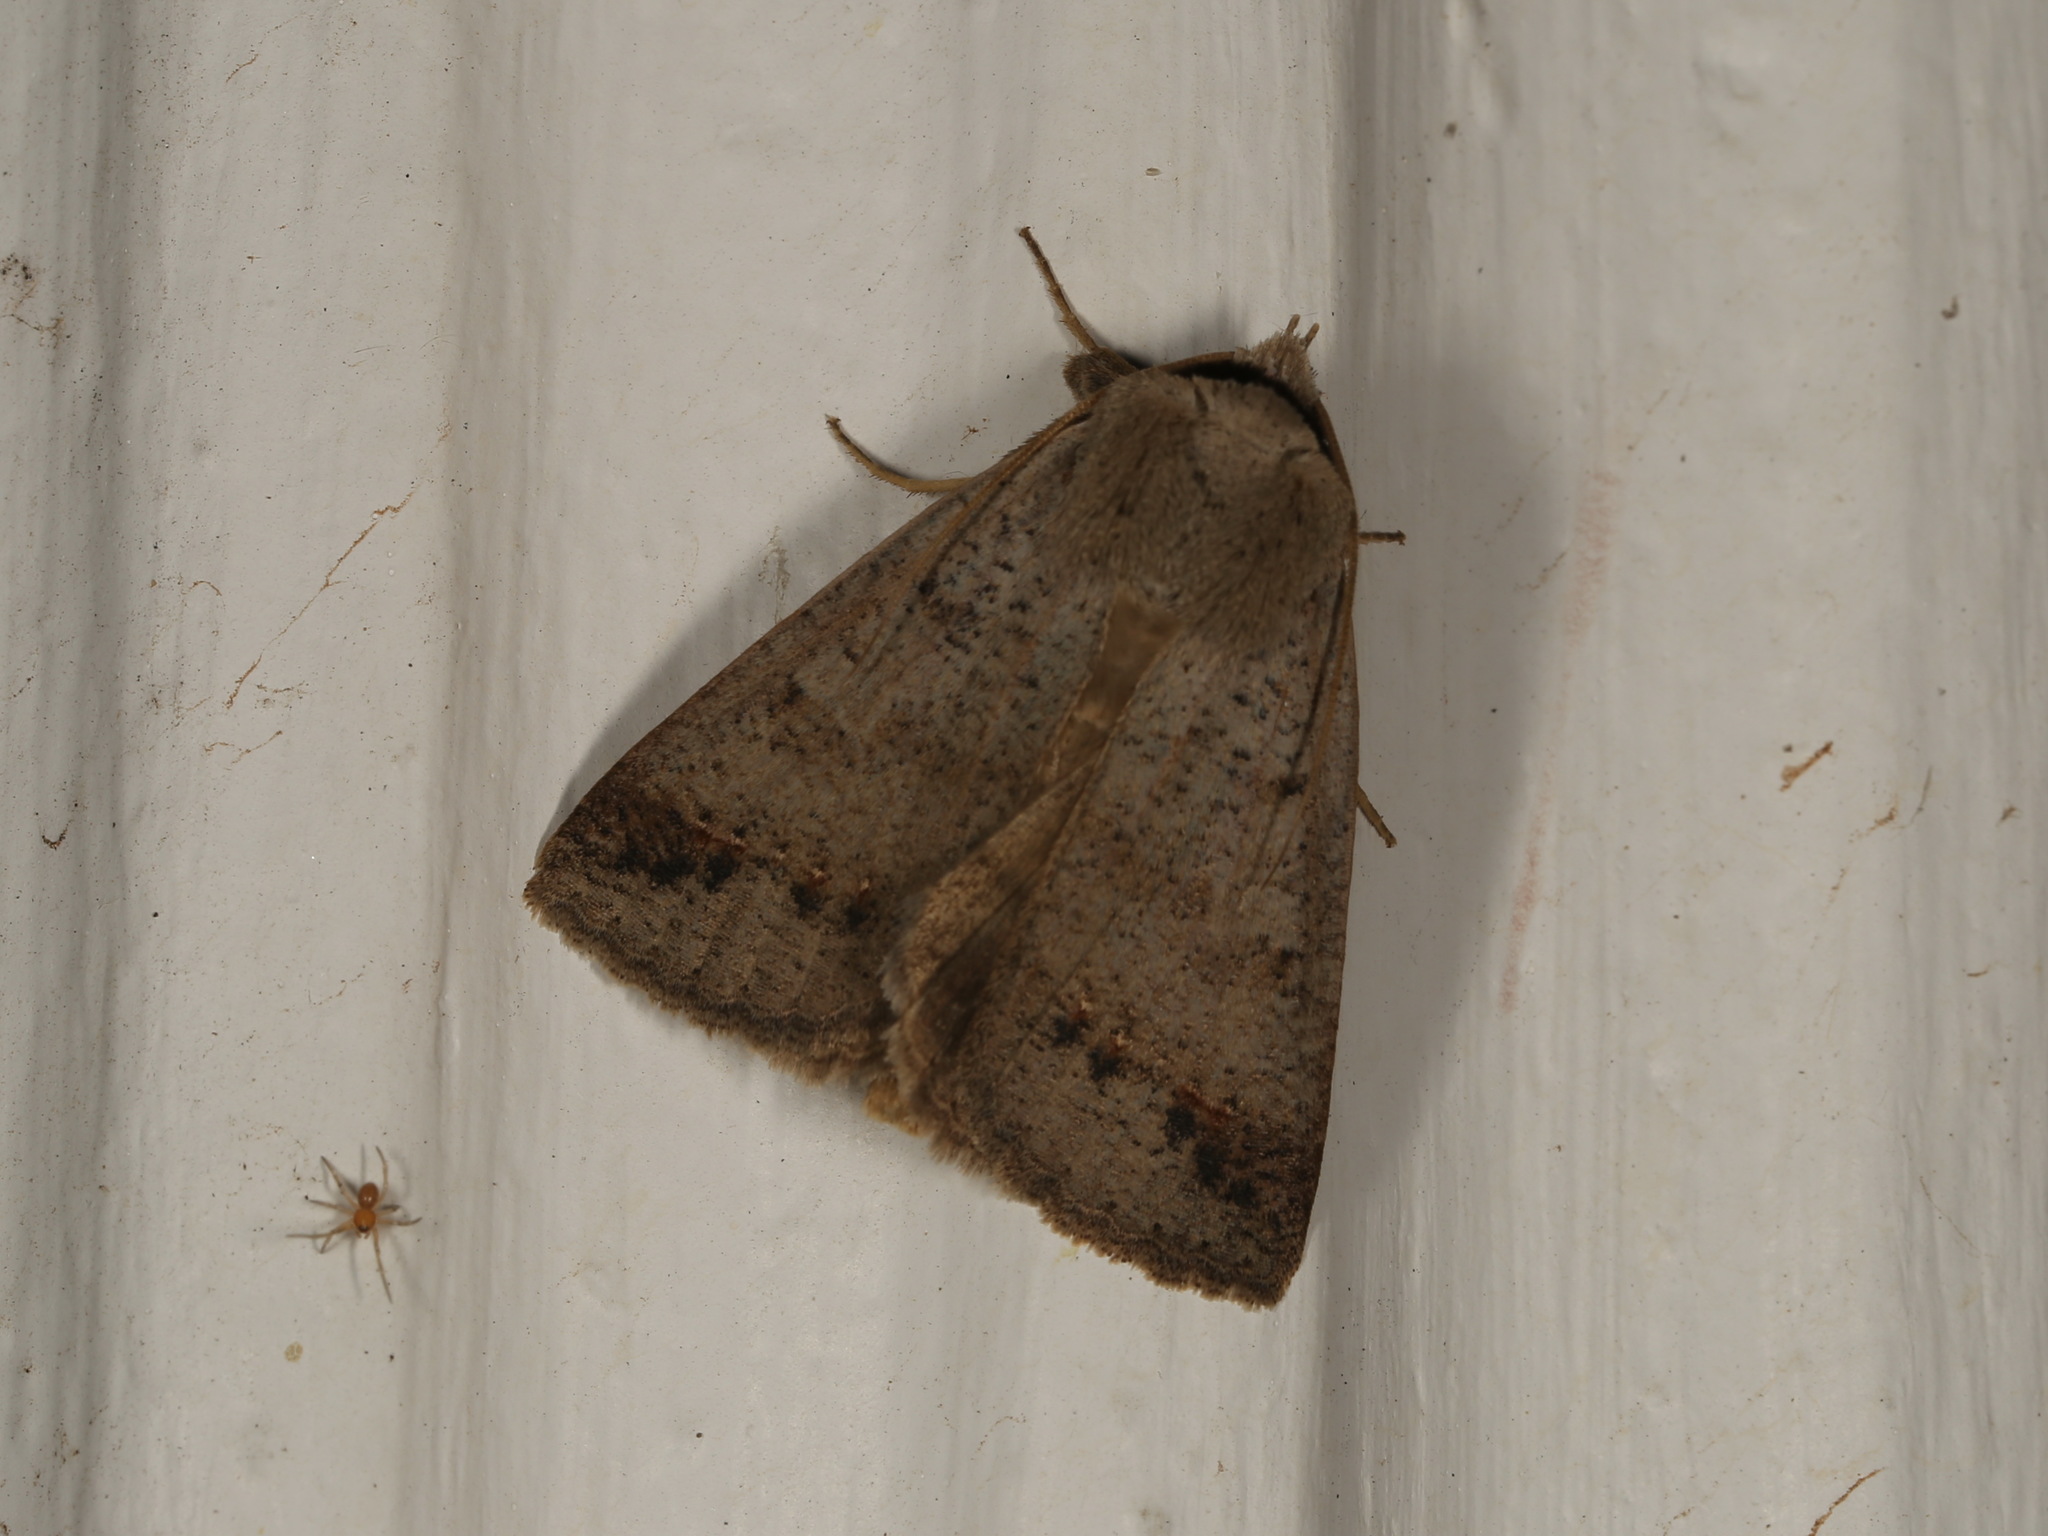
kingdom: Animalia
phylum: Arthropoda
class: Insecta
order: Lepidoptera
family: Erebidae
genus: Pantydia
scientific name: Pantydia sparsa
